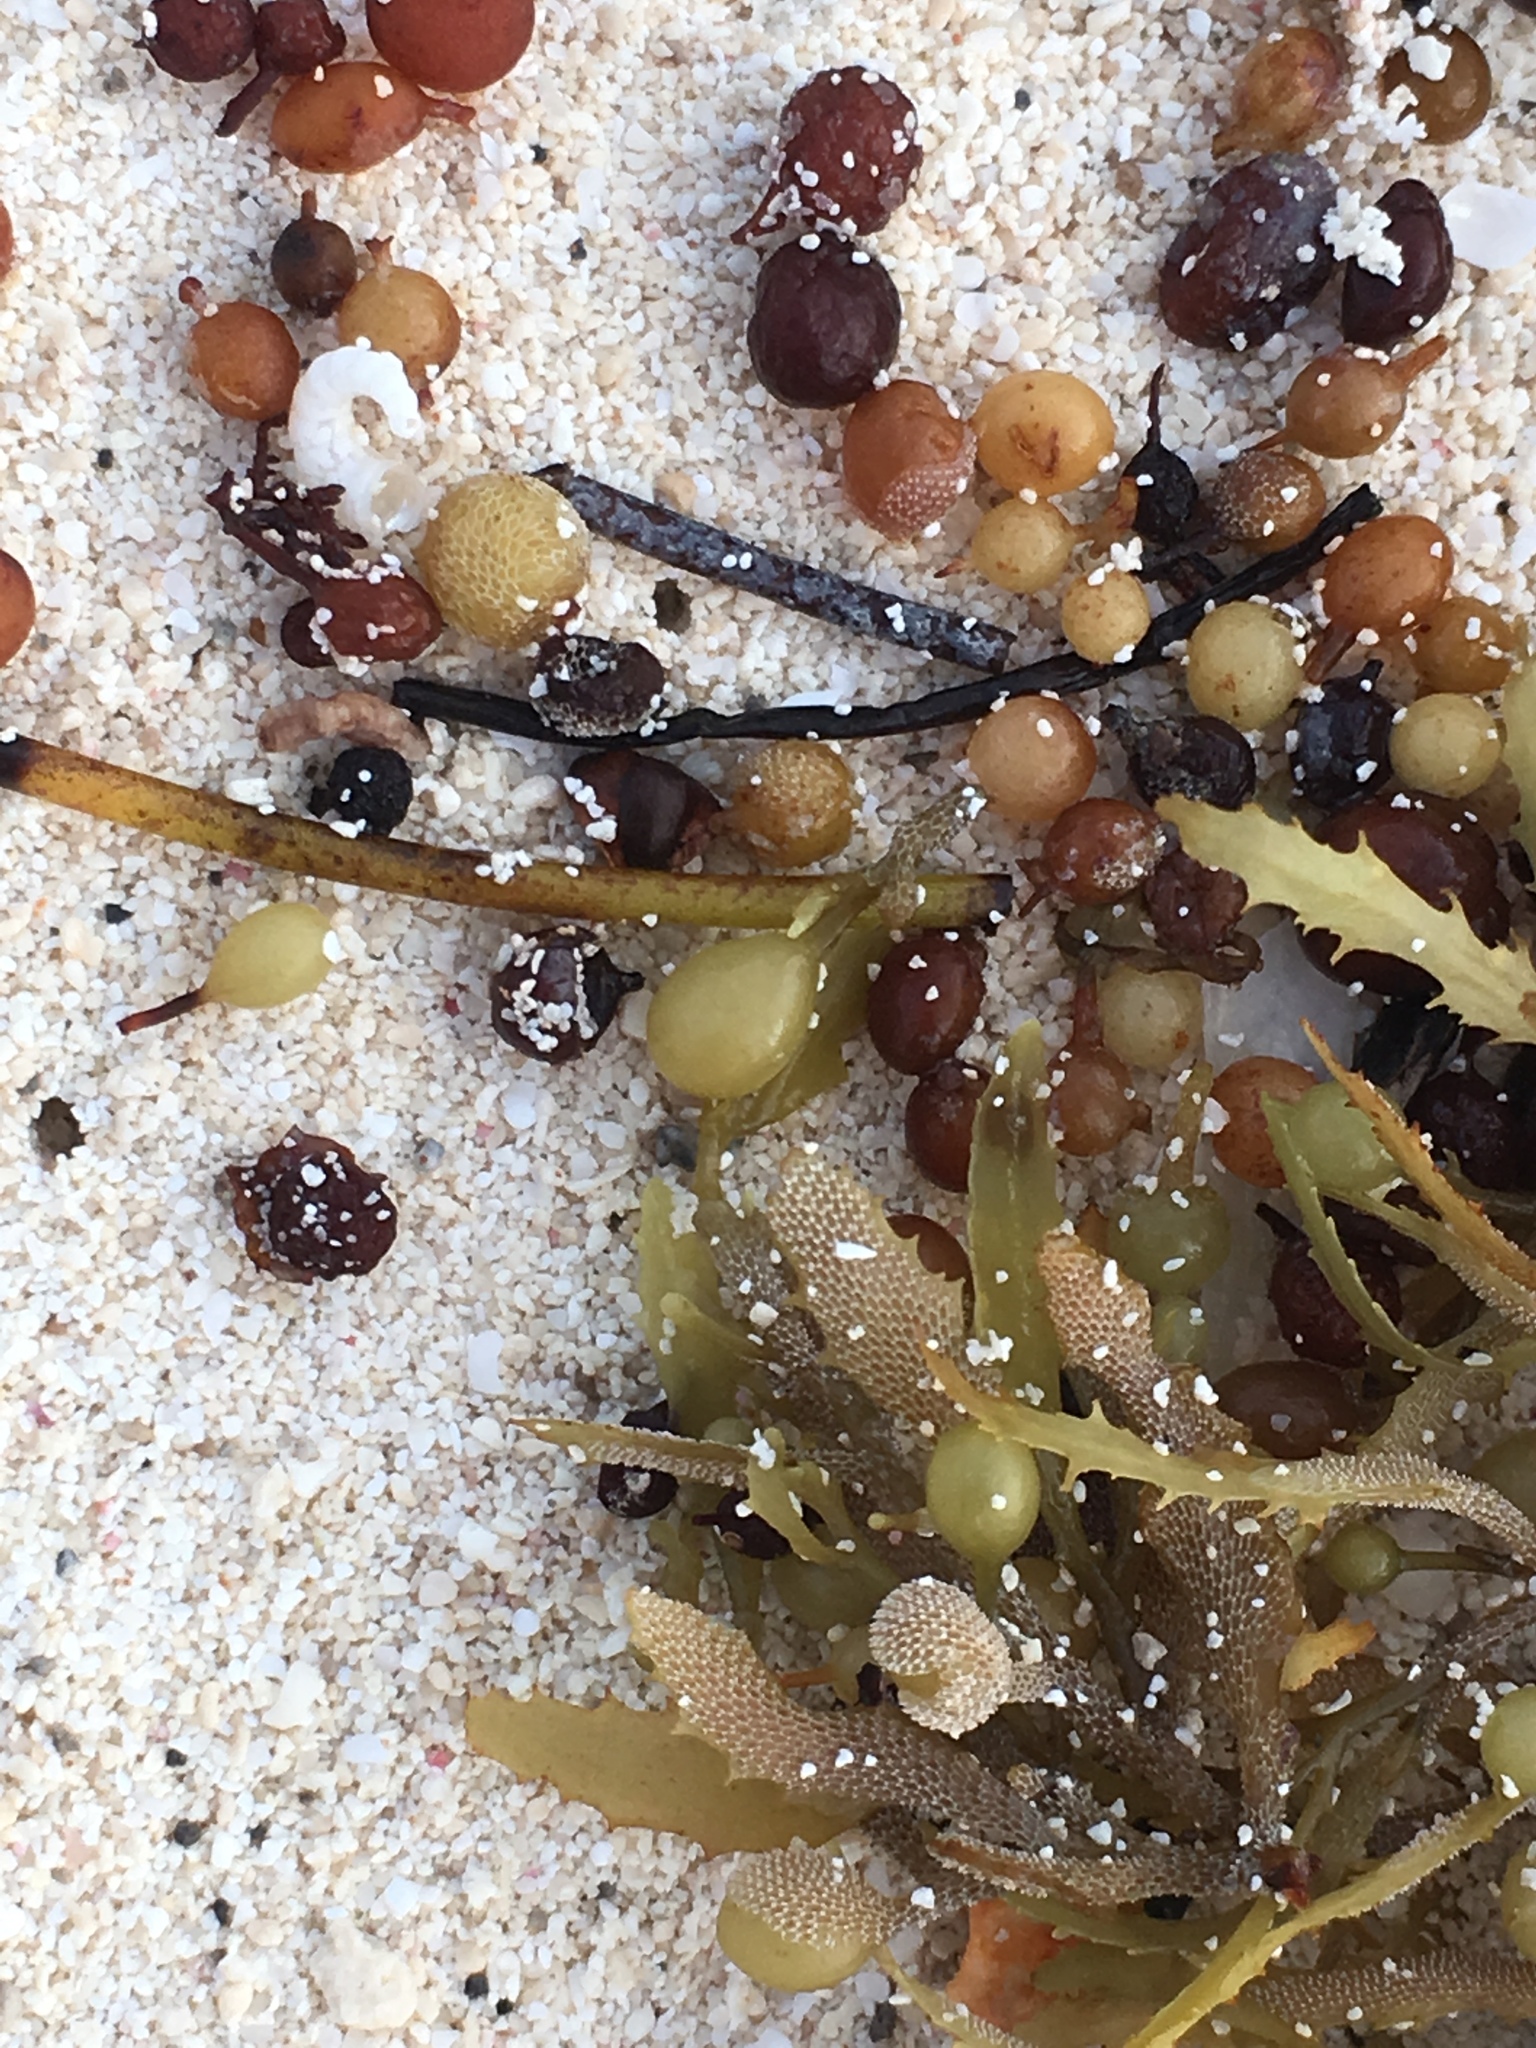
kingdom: Chromista
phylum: Ochrophyta
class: Phaeophyceae
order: Fucales
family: Sargassaceae
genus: Sargassum
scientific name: Sargassum fluitans
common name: Sargassum seaweed
